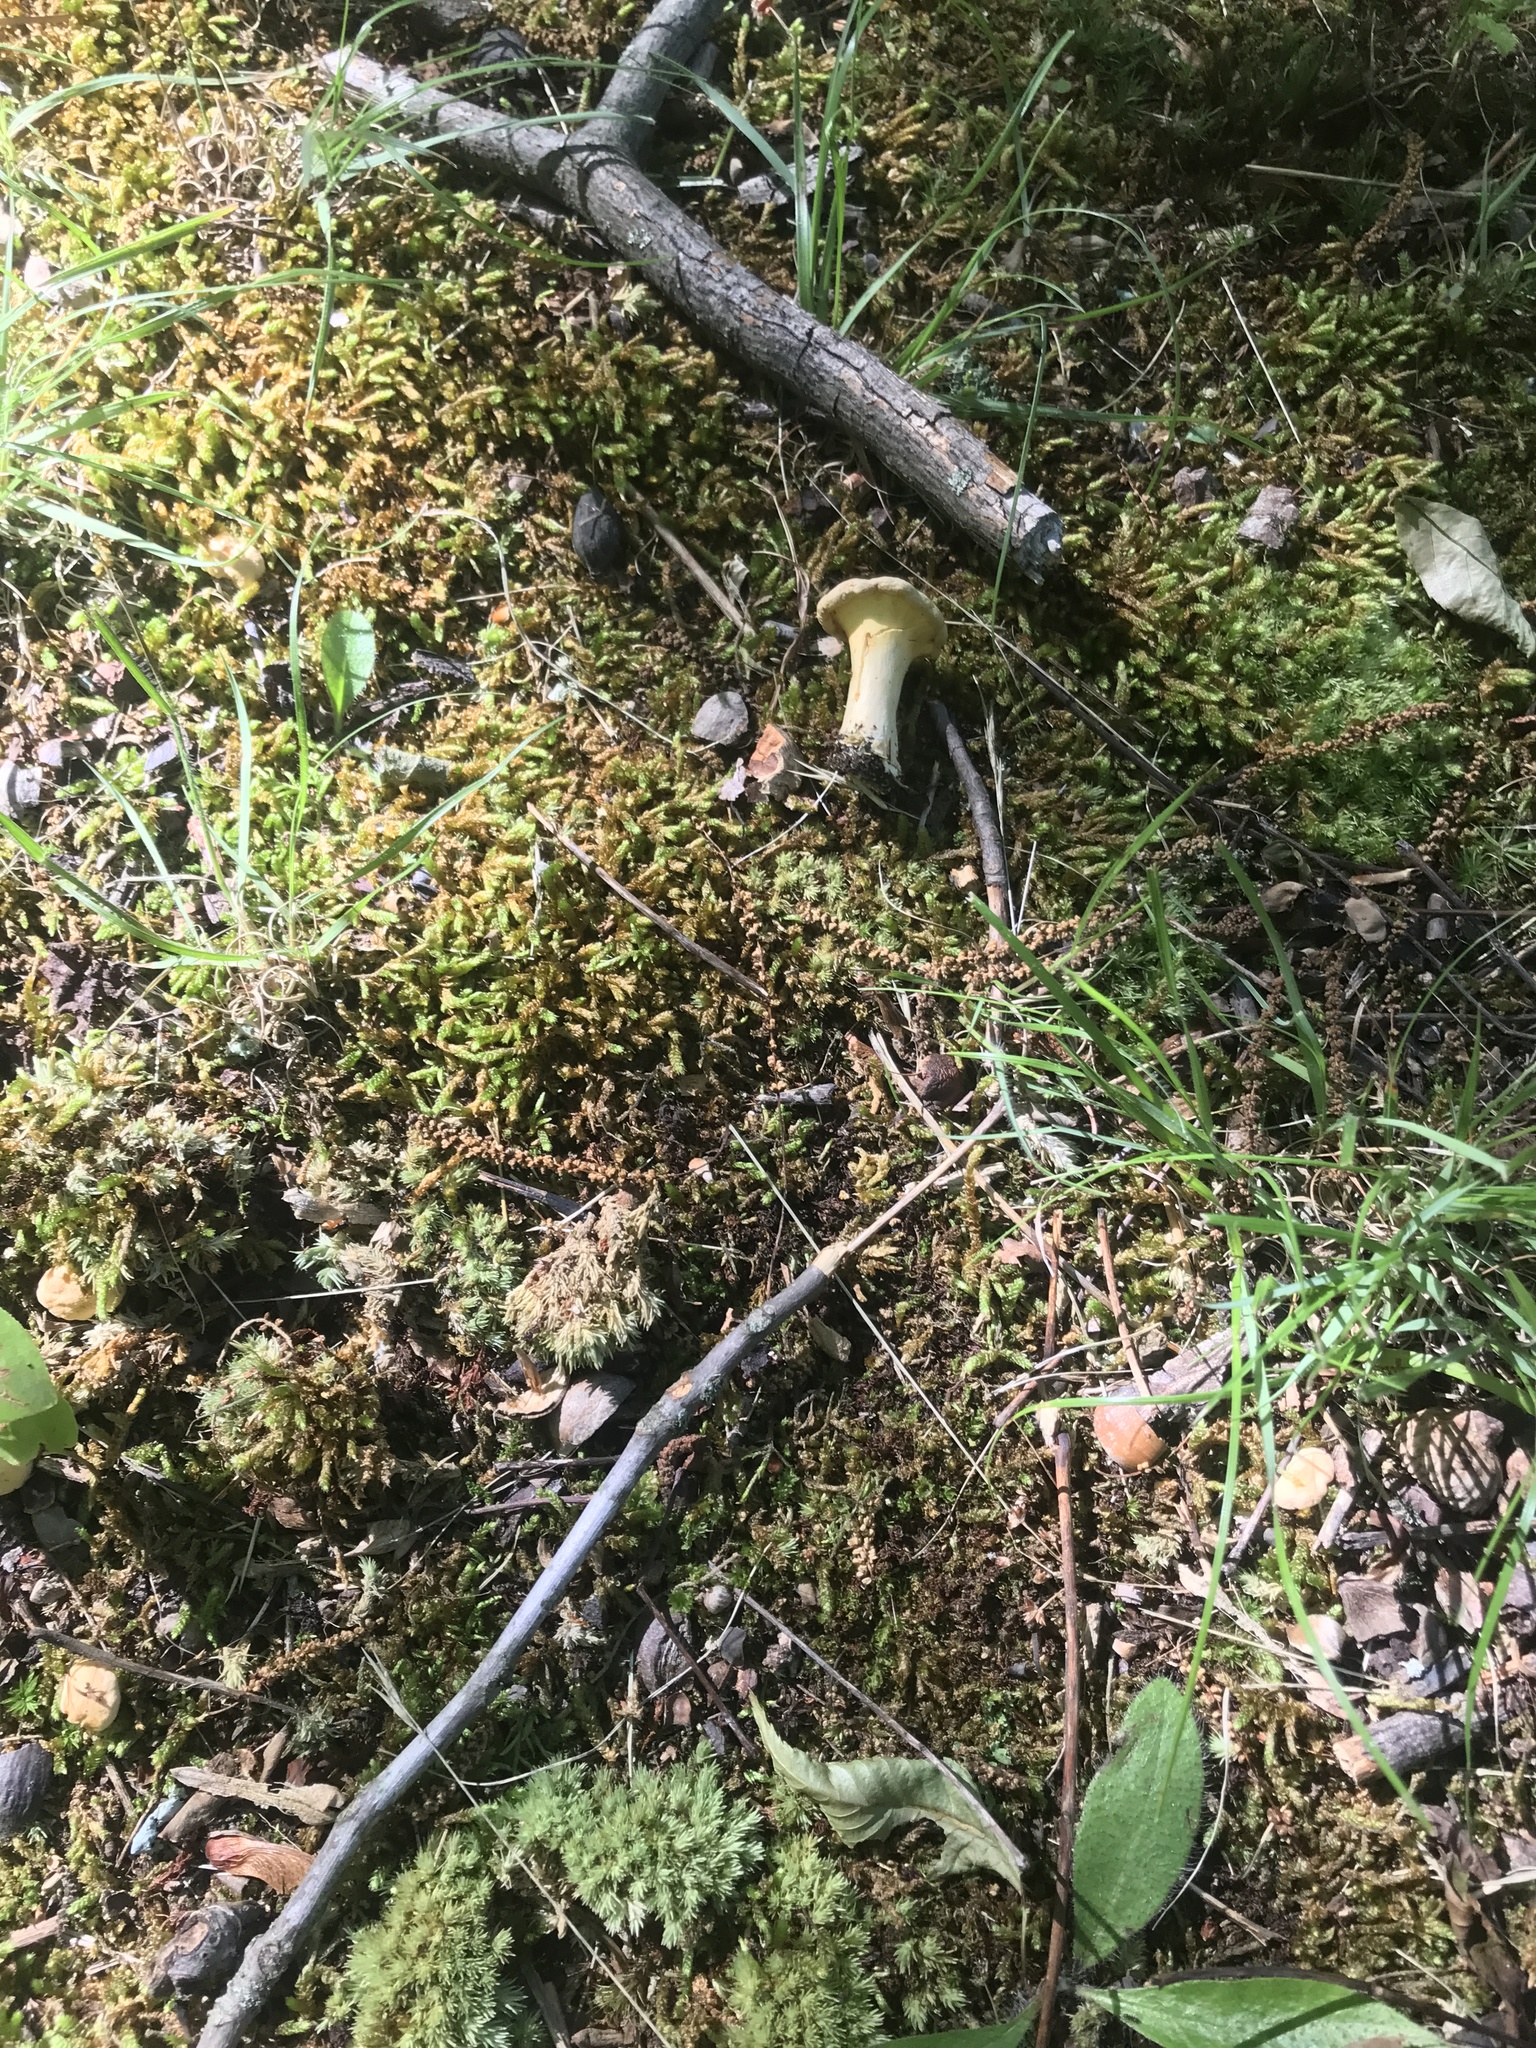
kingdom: Fungi
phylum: Basidiomycota
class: Agaricomycetes
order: Cantharellales
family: Hydnaceae
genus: Cantharellus
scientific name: Cantharellus flavolateritius
